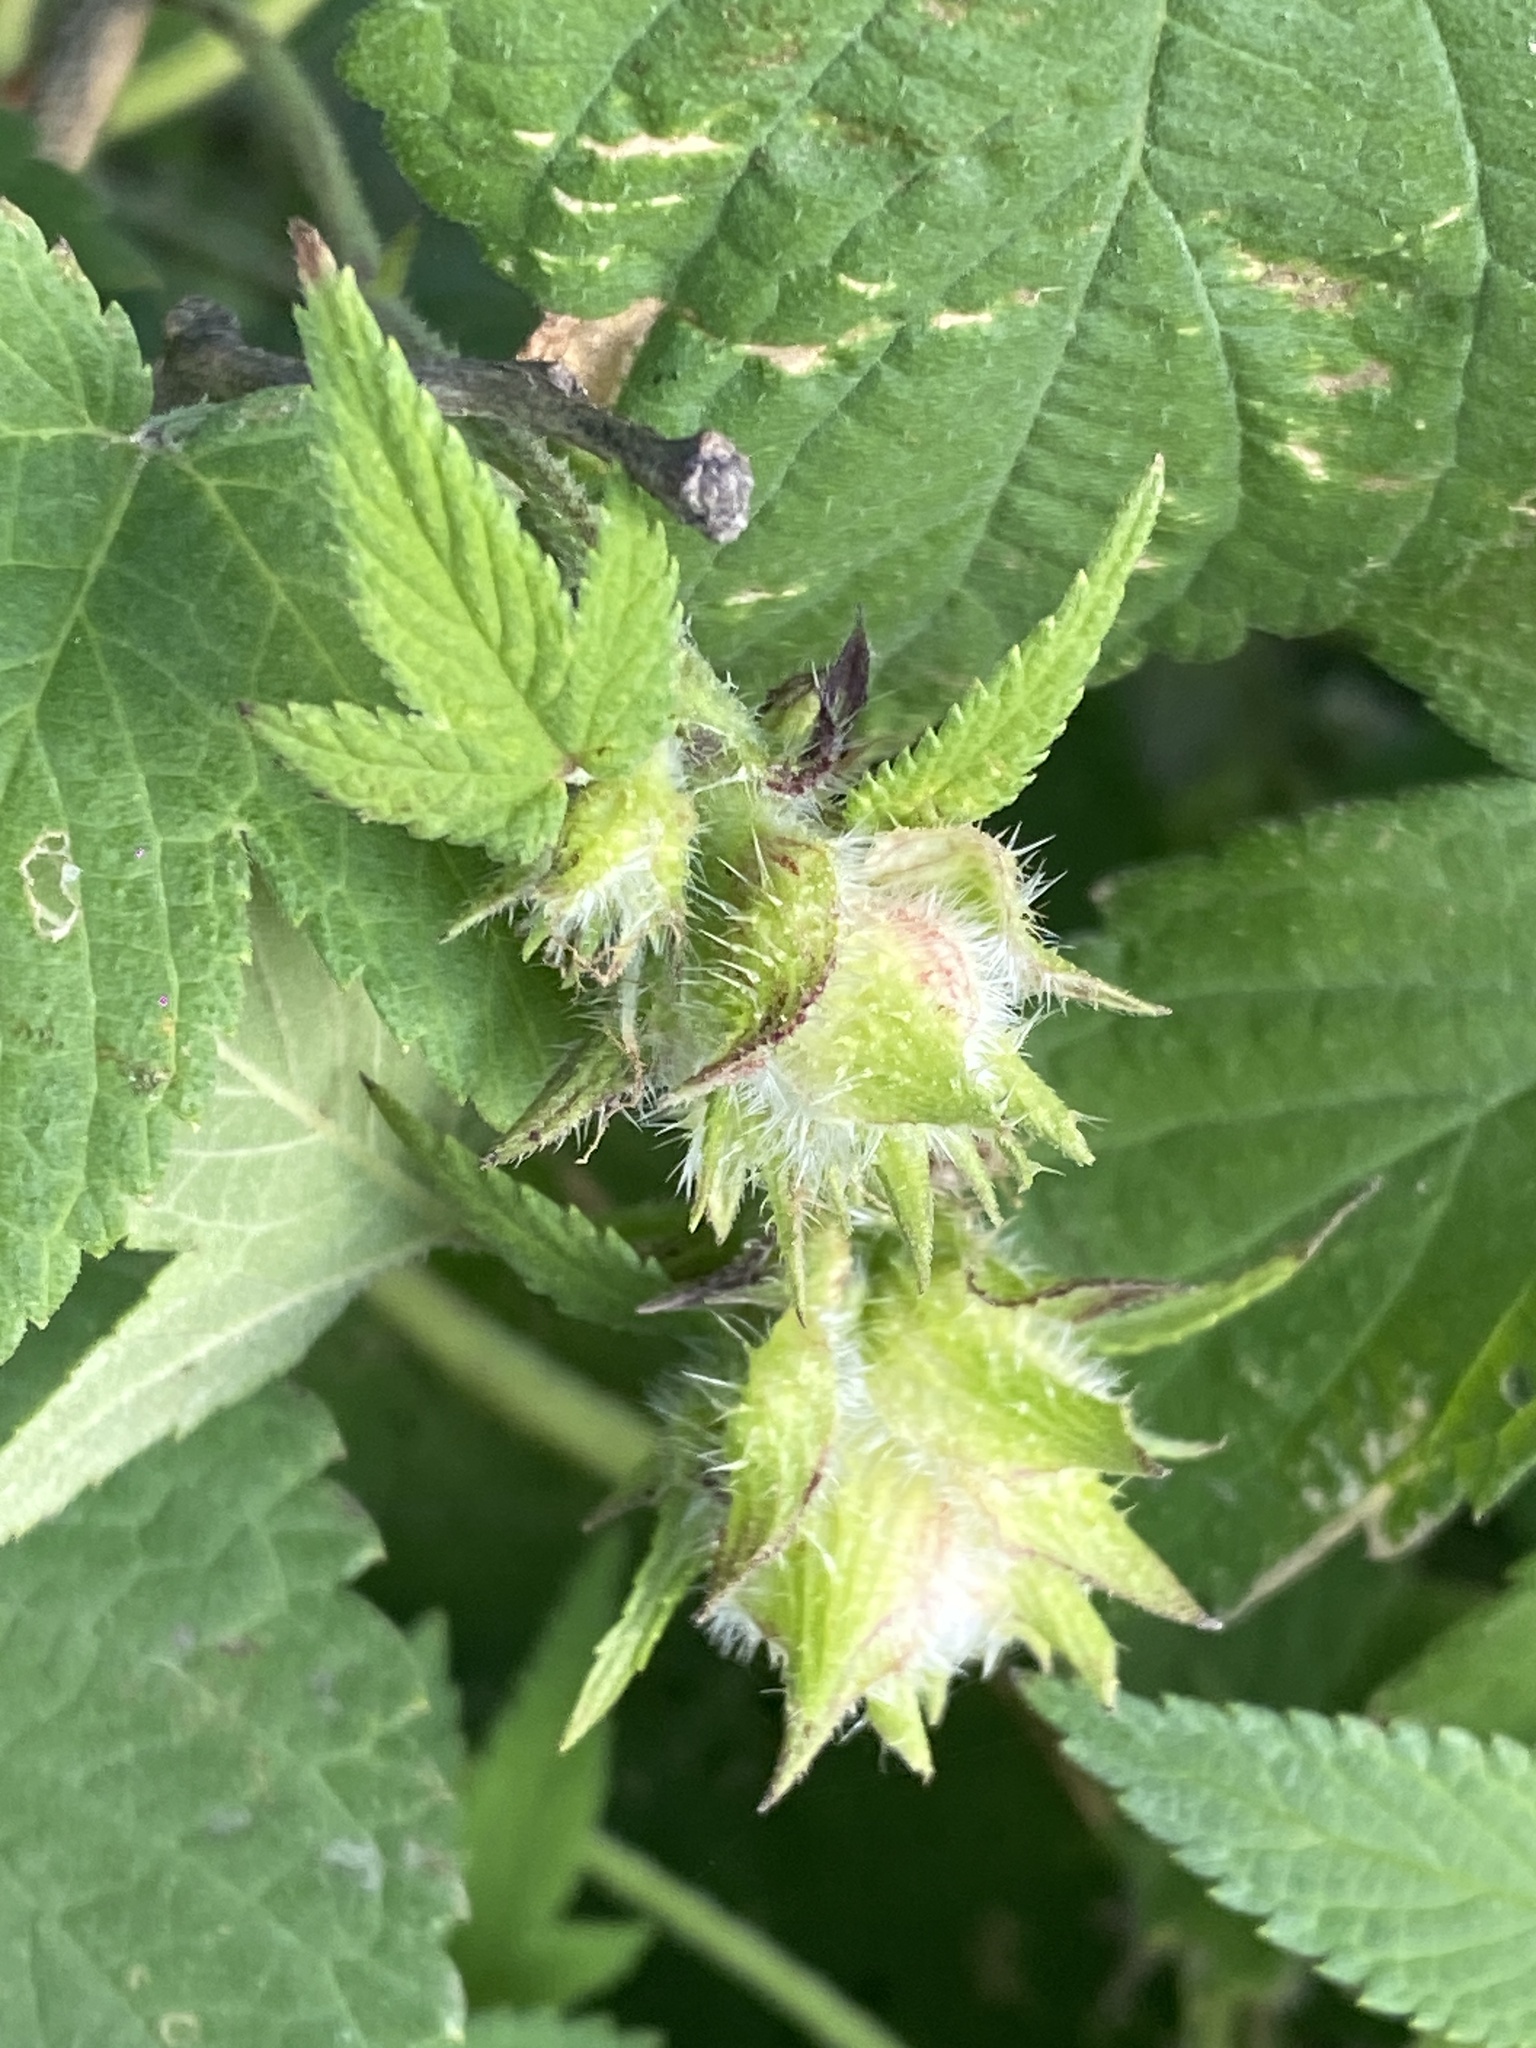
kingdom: Plantae
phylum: Tracheophyta
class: Magnoliopsida
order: Rosales
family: Cannabaceae
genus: Humulus
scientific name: Humulus scandens
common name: Japanese hop
